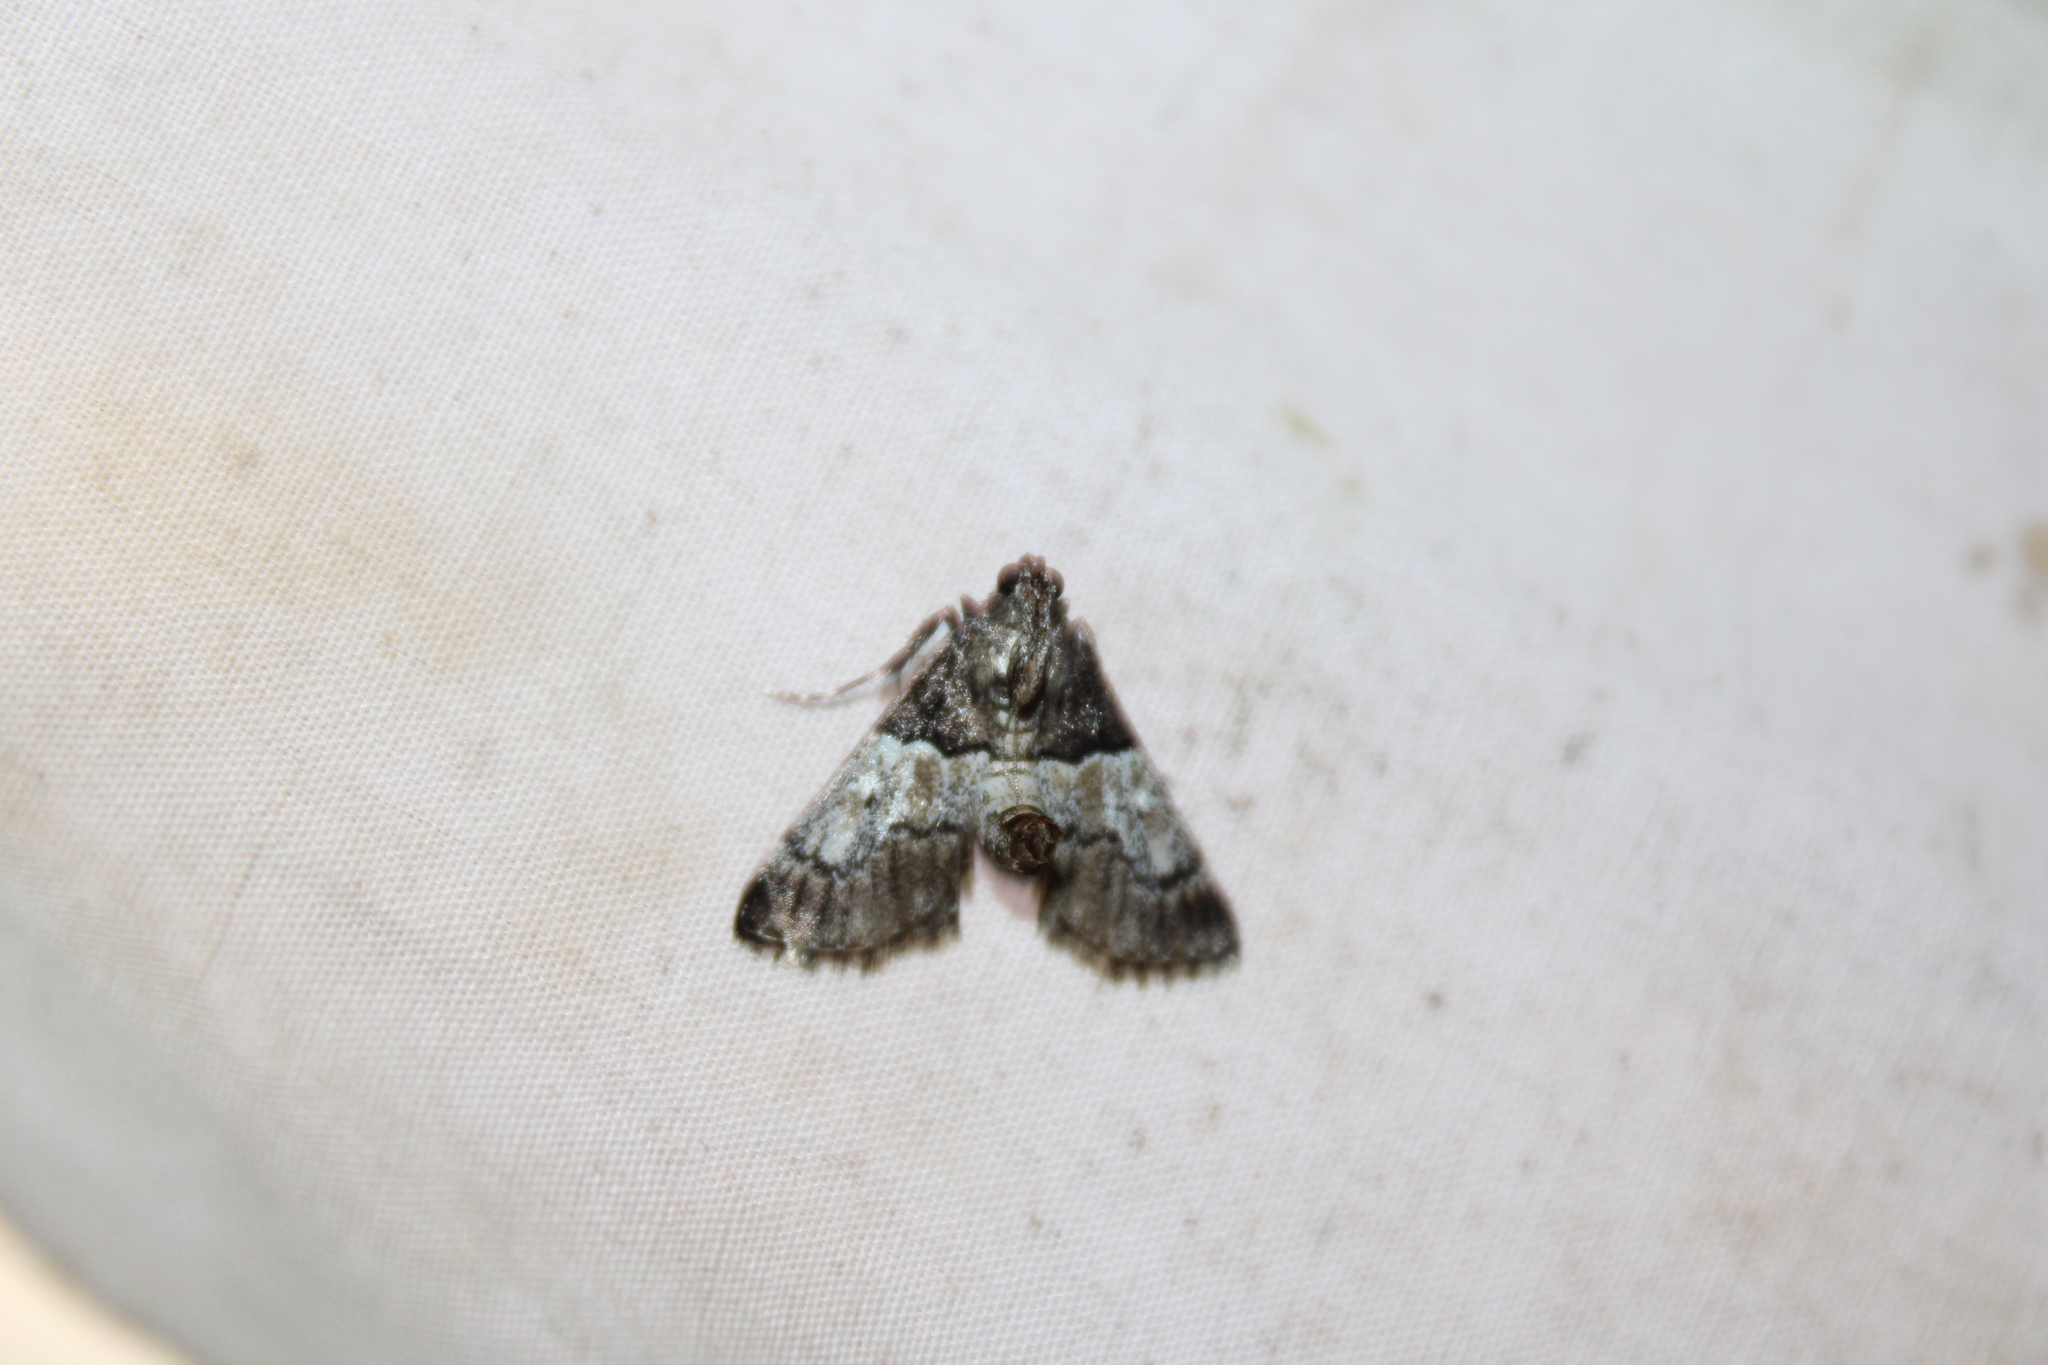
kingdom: Animalia
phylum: Arthropoda
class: Insecta
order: Lepidoptera
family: Pyralidae
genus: Macalla
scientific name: Macalla zelleri
